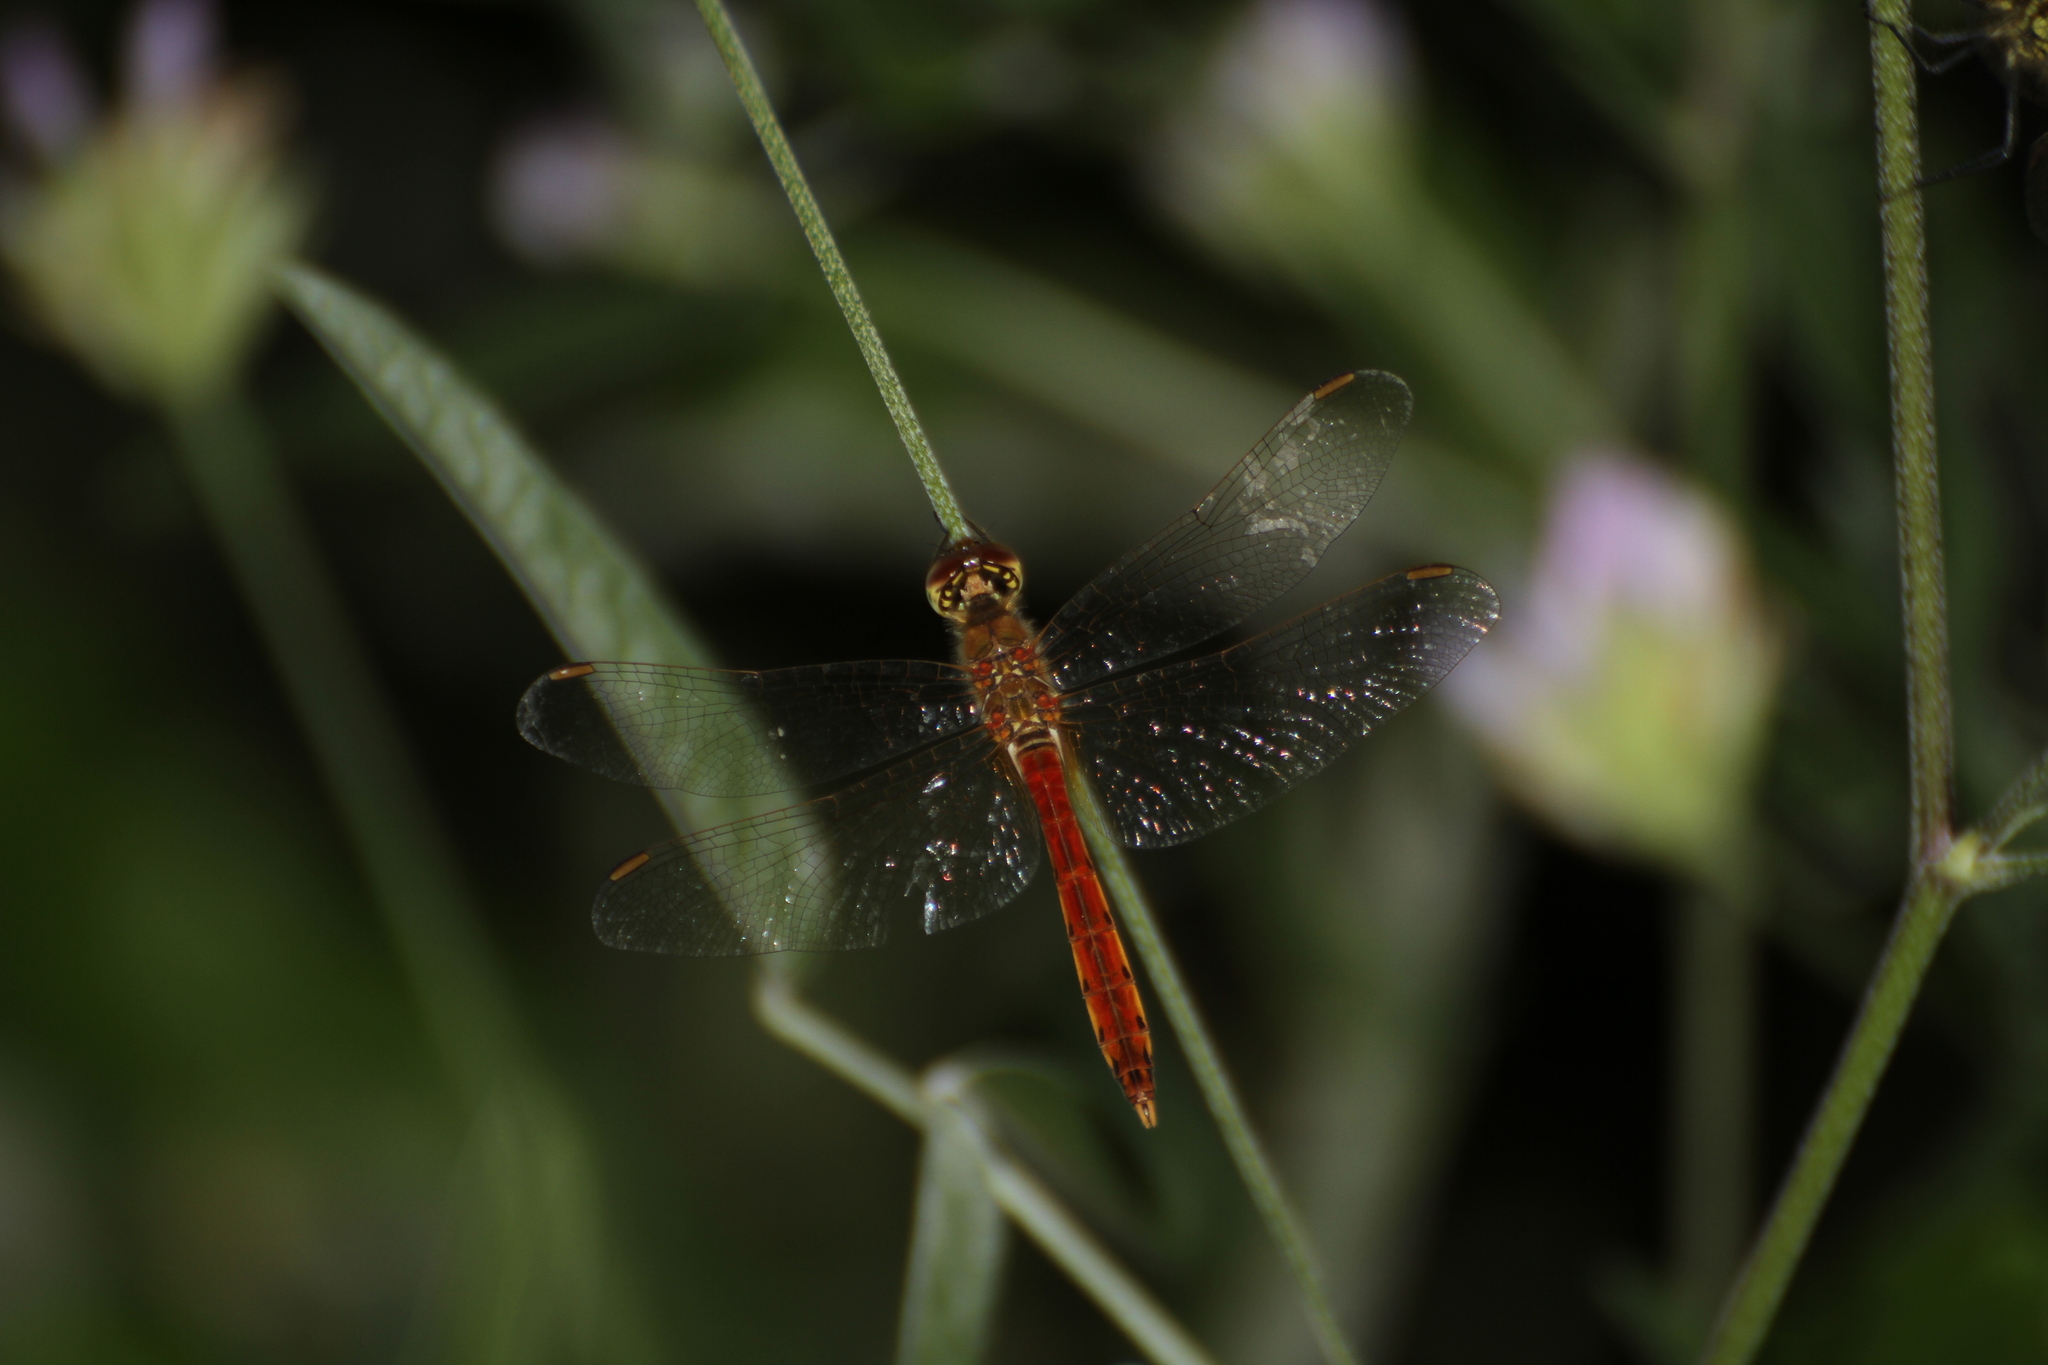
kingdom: Animalia
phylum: Arthropoda
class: Insecta
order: Odonata
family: Libellulidae
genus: Sympetrum
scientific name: Sympetrum depressiusculum
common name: Spotted darter
